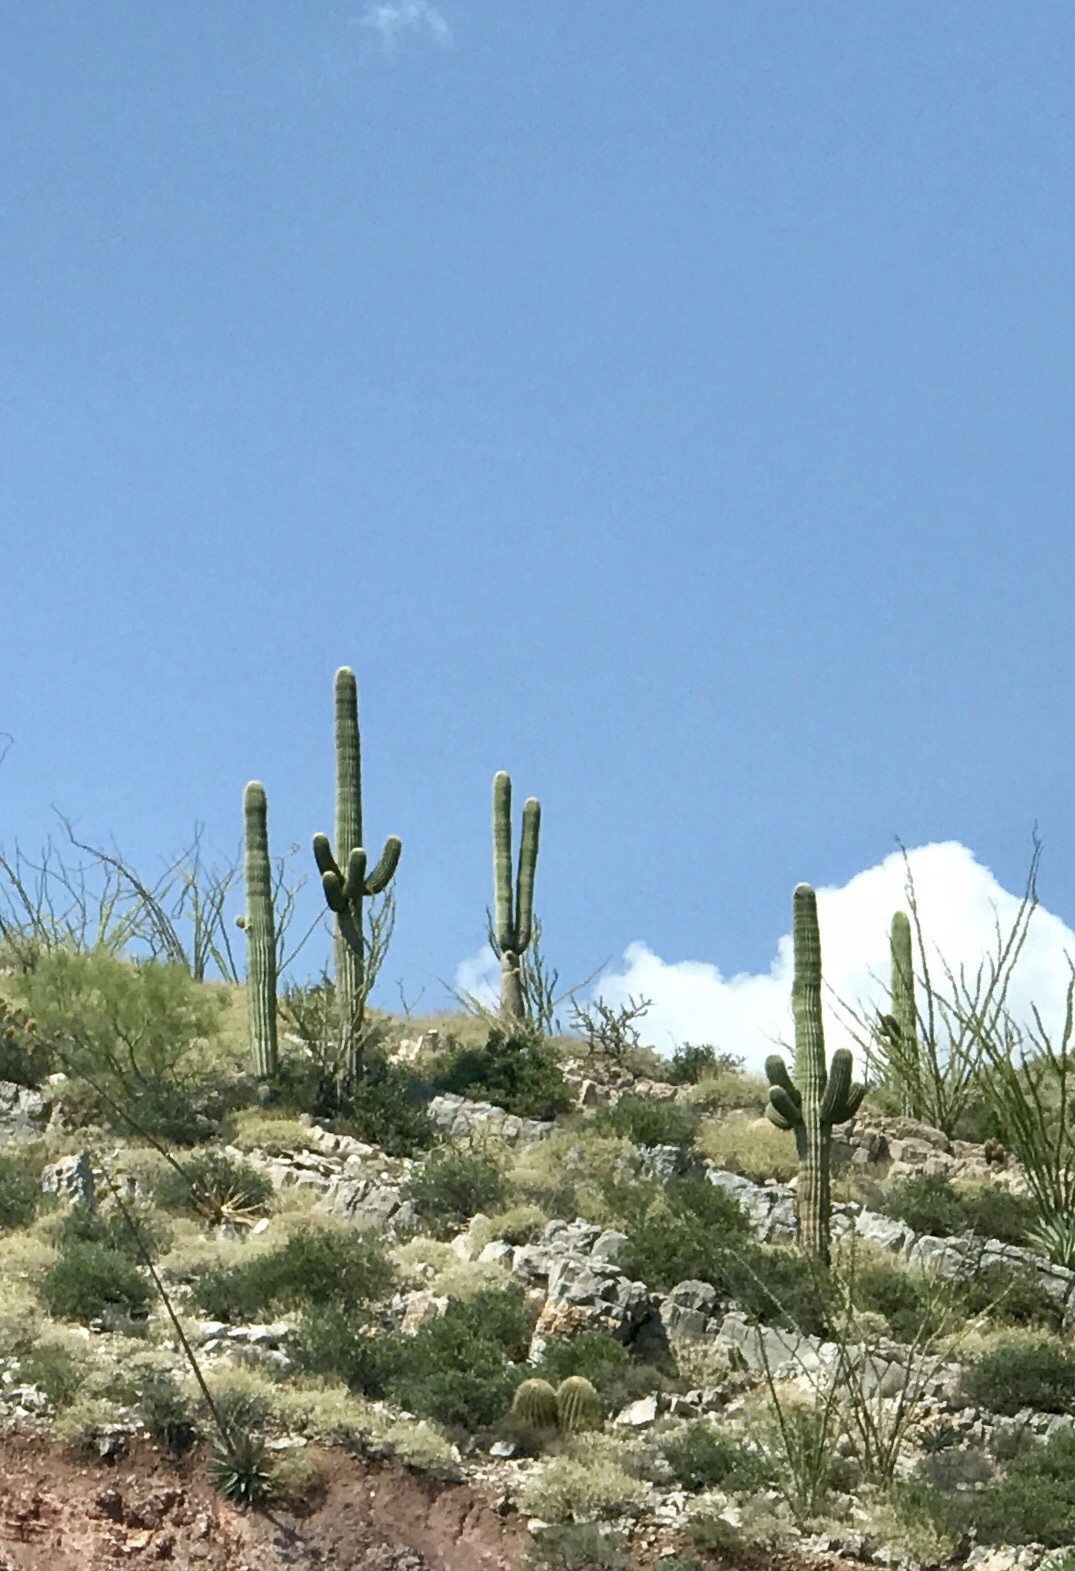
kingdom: Plantae
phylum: Tracheophyta
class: Magnoliopsida
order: Caryophyllales
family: Cactaceae
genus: Carnegiea
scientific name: Carnegiea gigantea
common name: Saguaro
